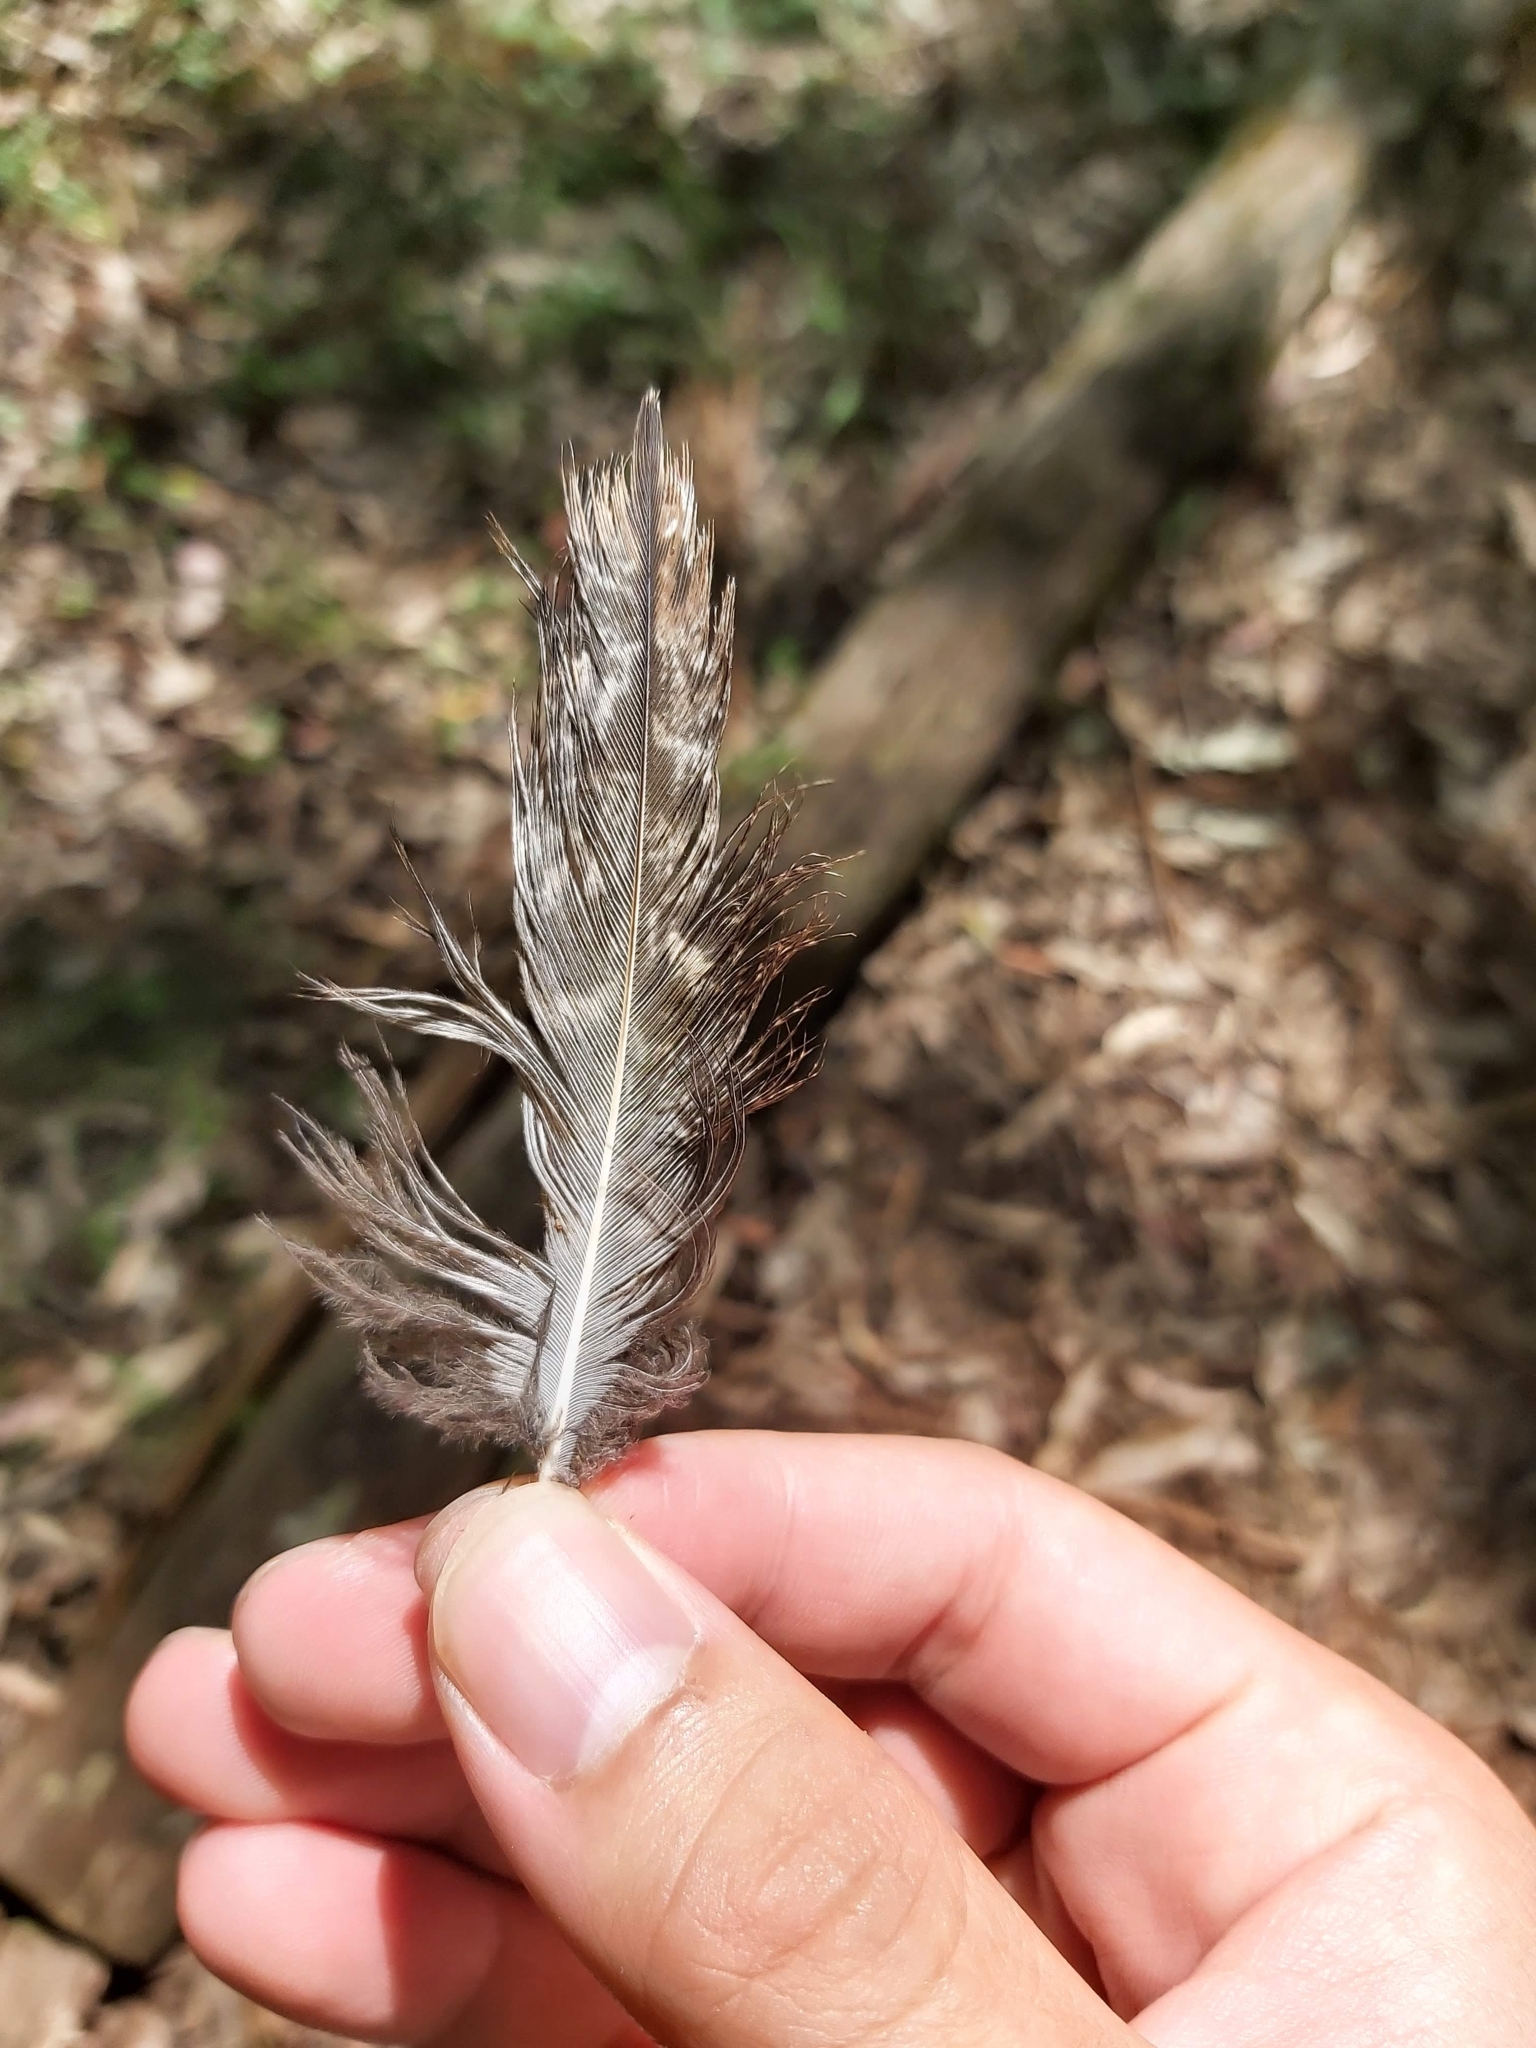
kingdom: Animalia
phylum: Chordata
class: Aves
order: Caprimulgiformes
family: Podargidae
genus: Podargus
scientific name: Podargus strigoides
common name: Tawny frogmouth
